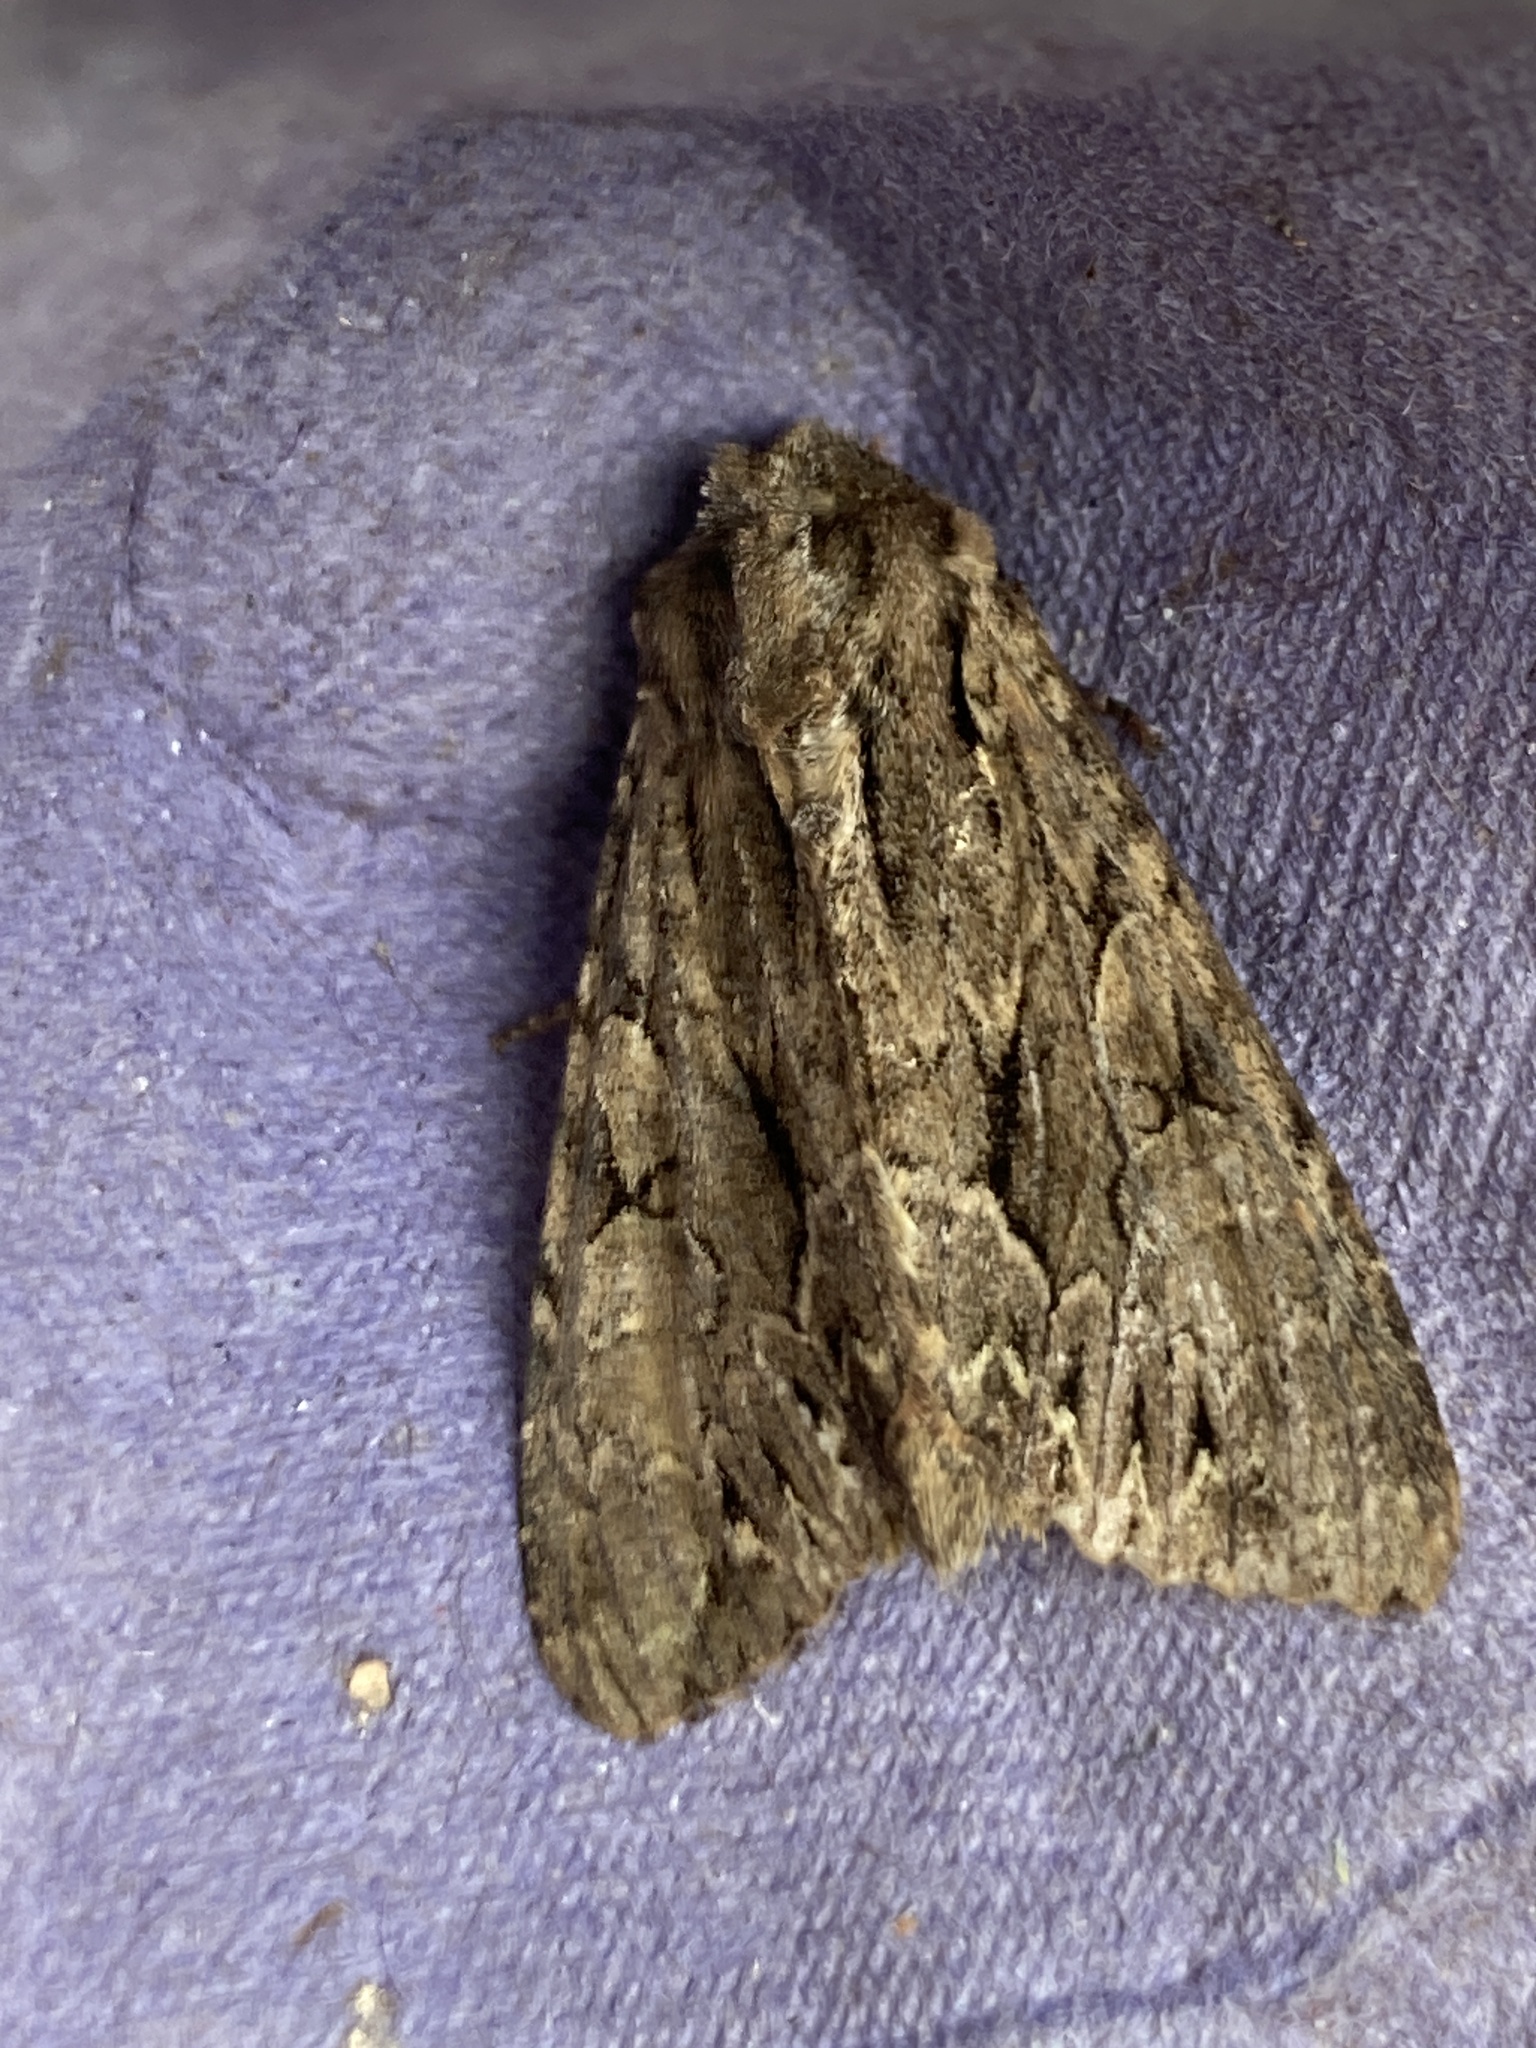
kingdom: Animalia
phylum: Arthropoda
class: Insecta
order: Lepidoptera
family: Noctuidae
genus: Apamea
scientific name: Apamea monoglypha
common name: Dark arches
